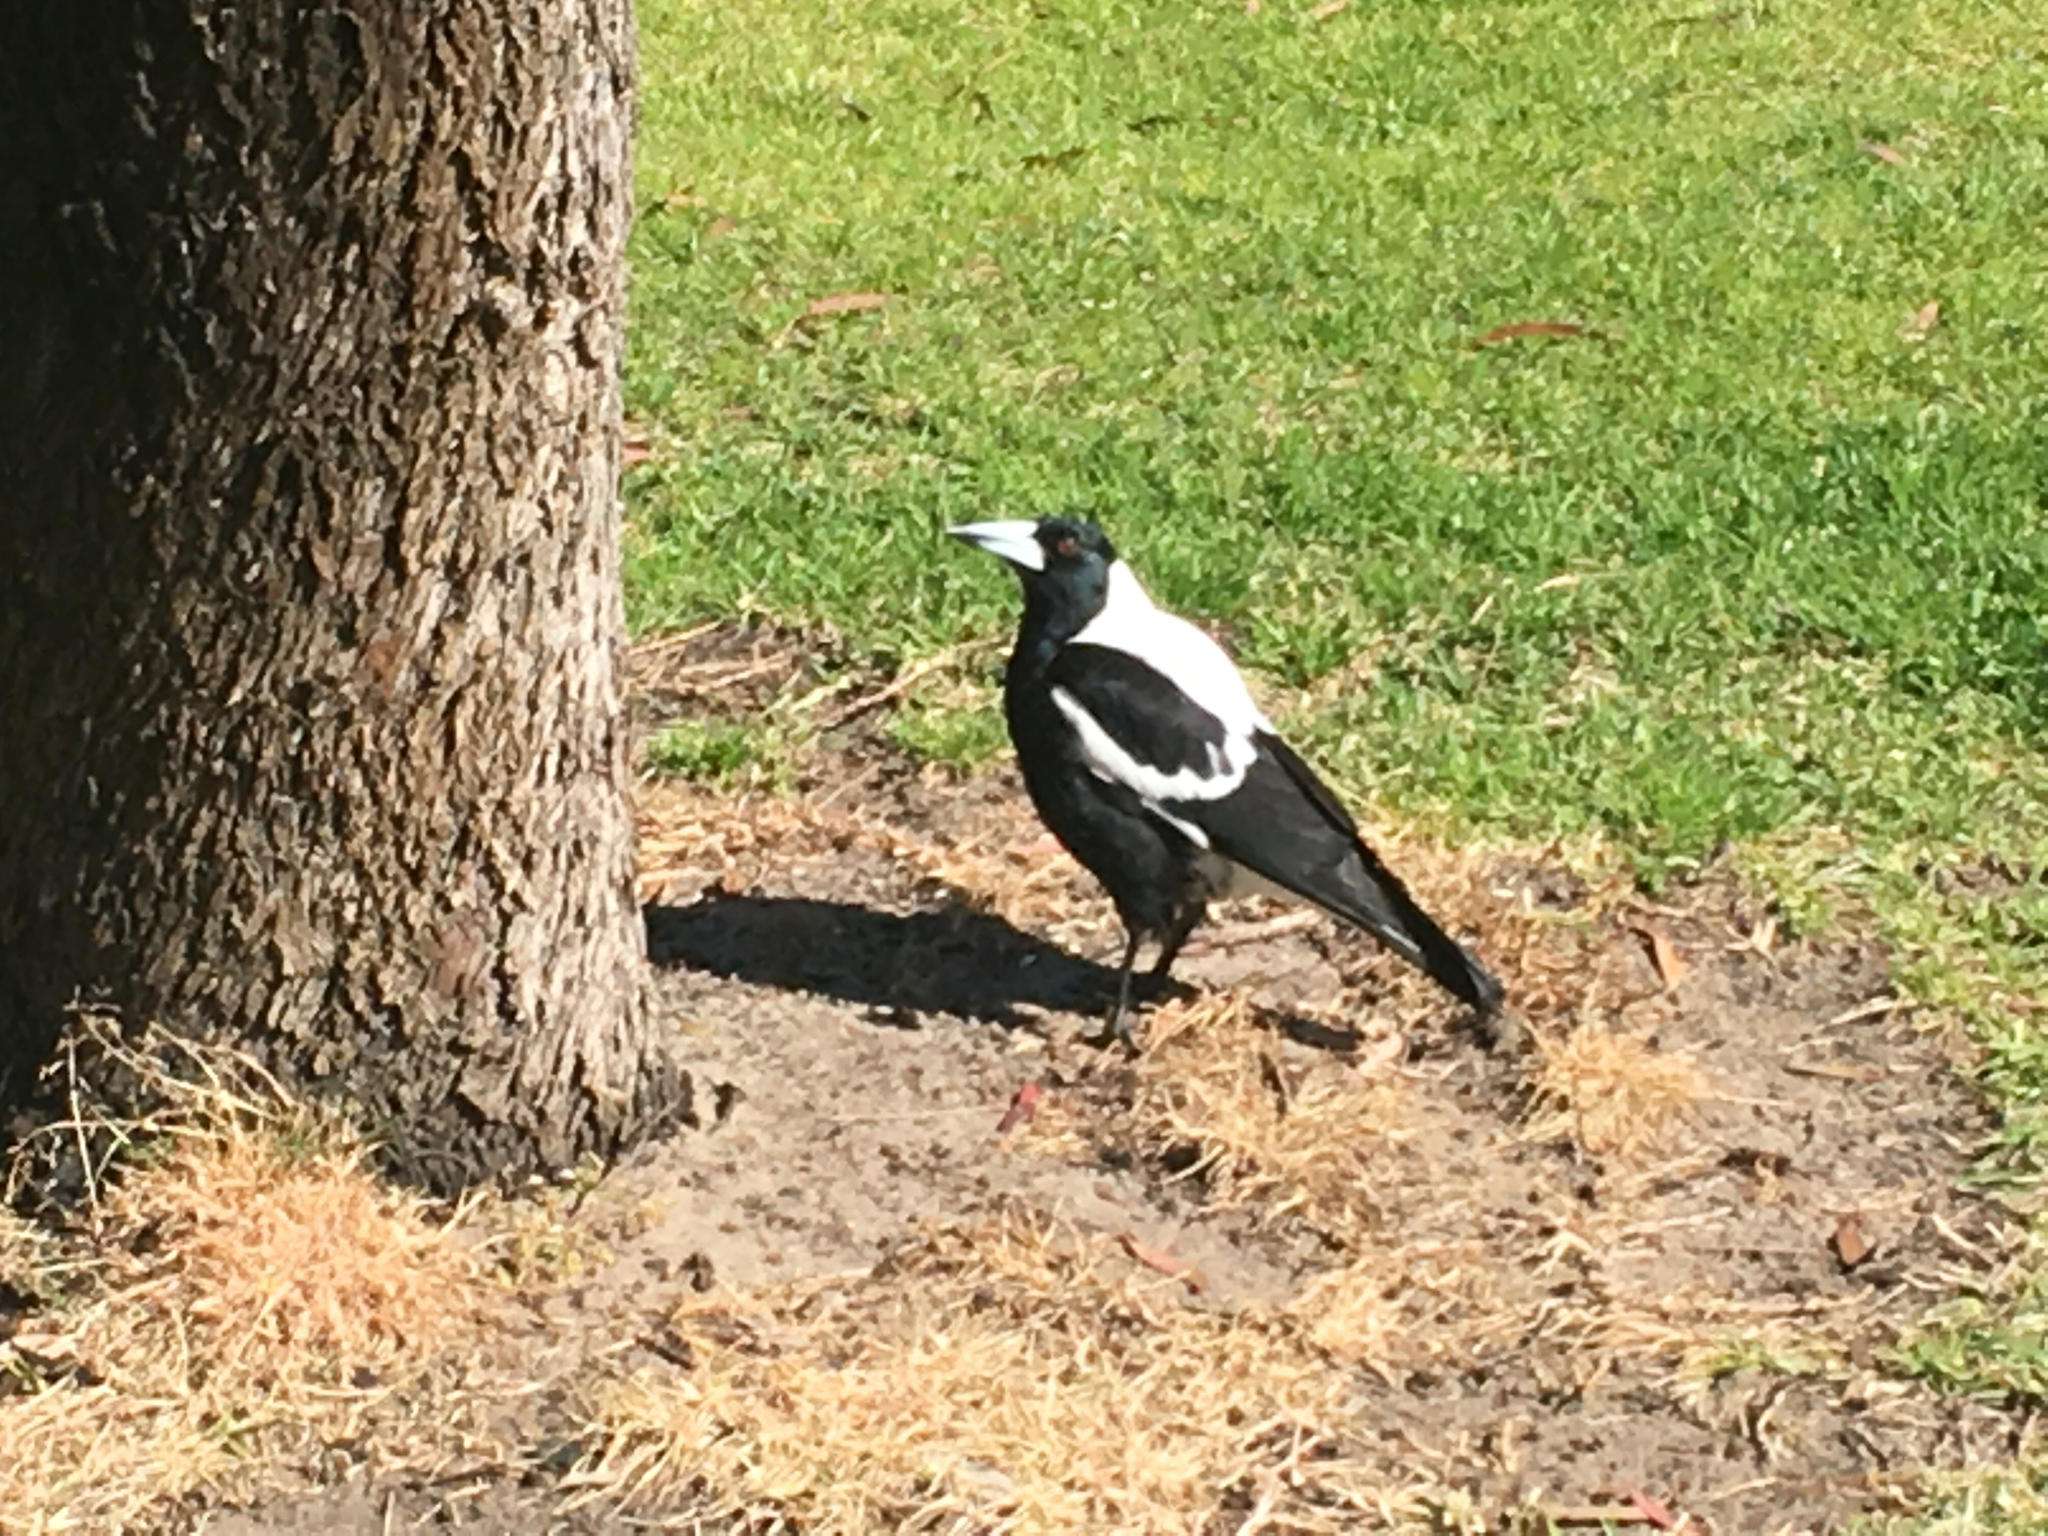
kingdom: Animalia
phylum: Chordata
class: Aves
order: Passeriformes
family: Cracticidae
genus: Gymnorhina
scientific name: Gymnorhina tibicen
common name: Australian magpie
